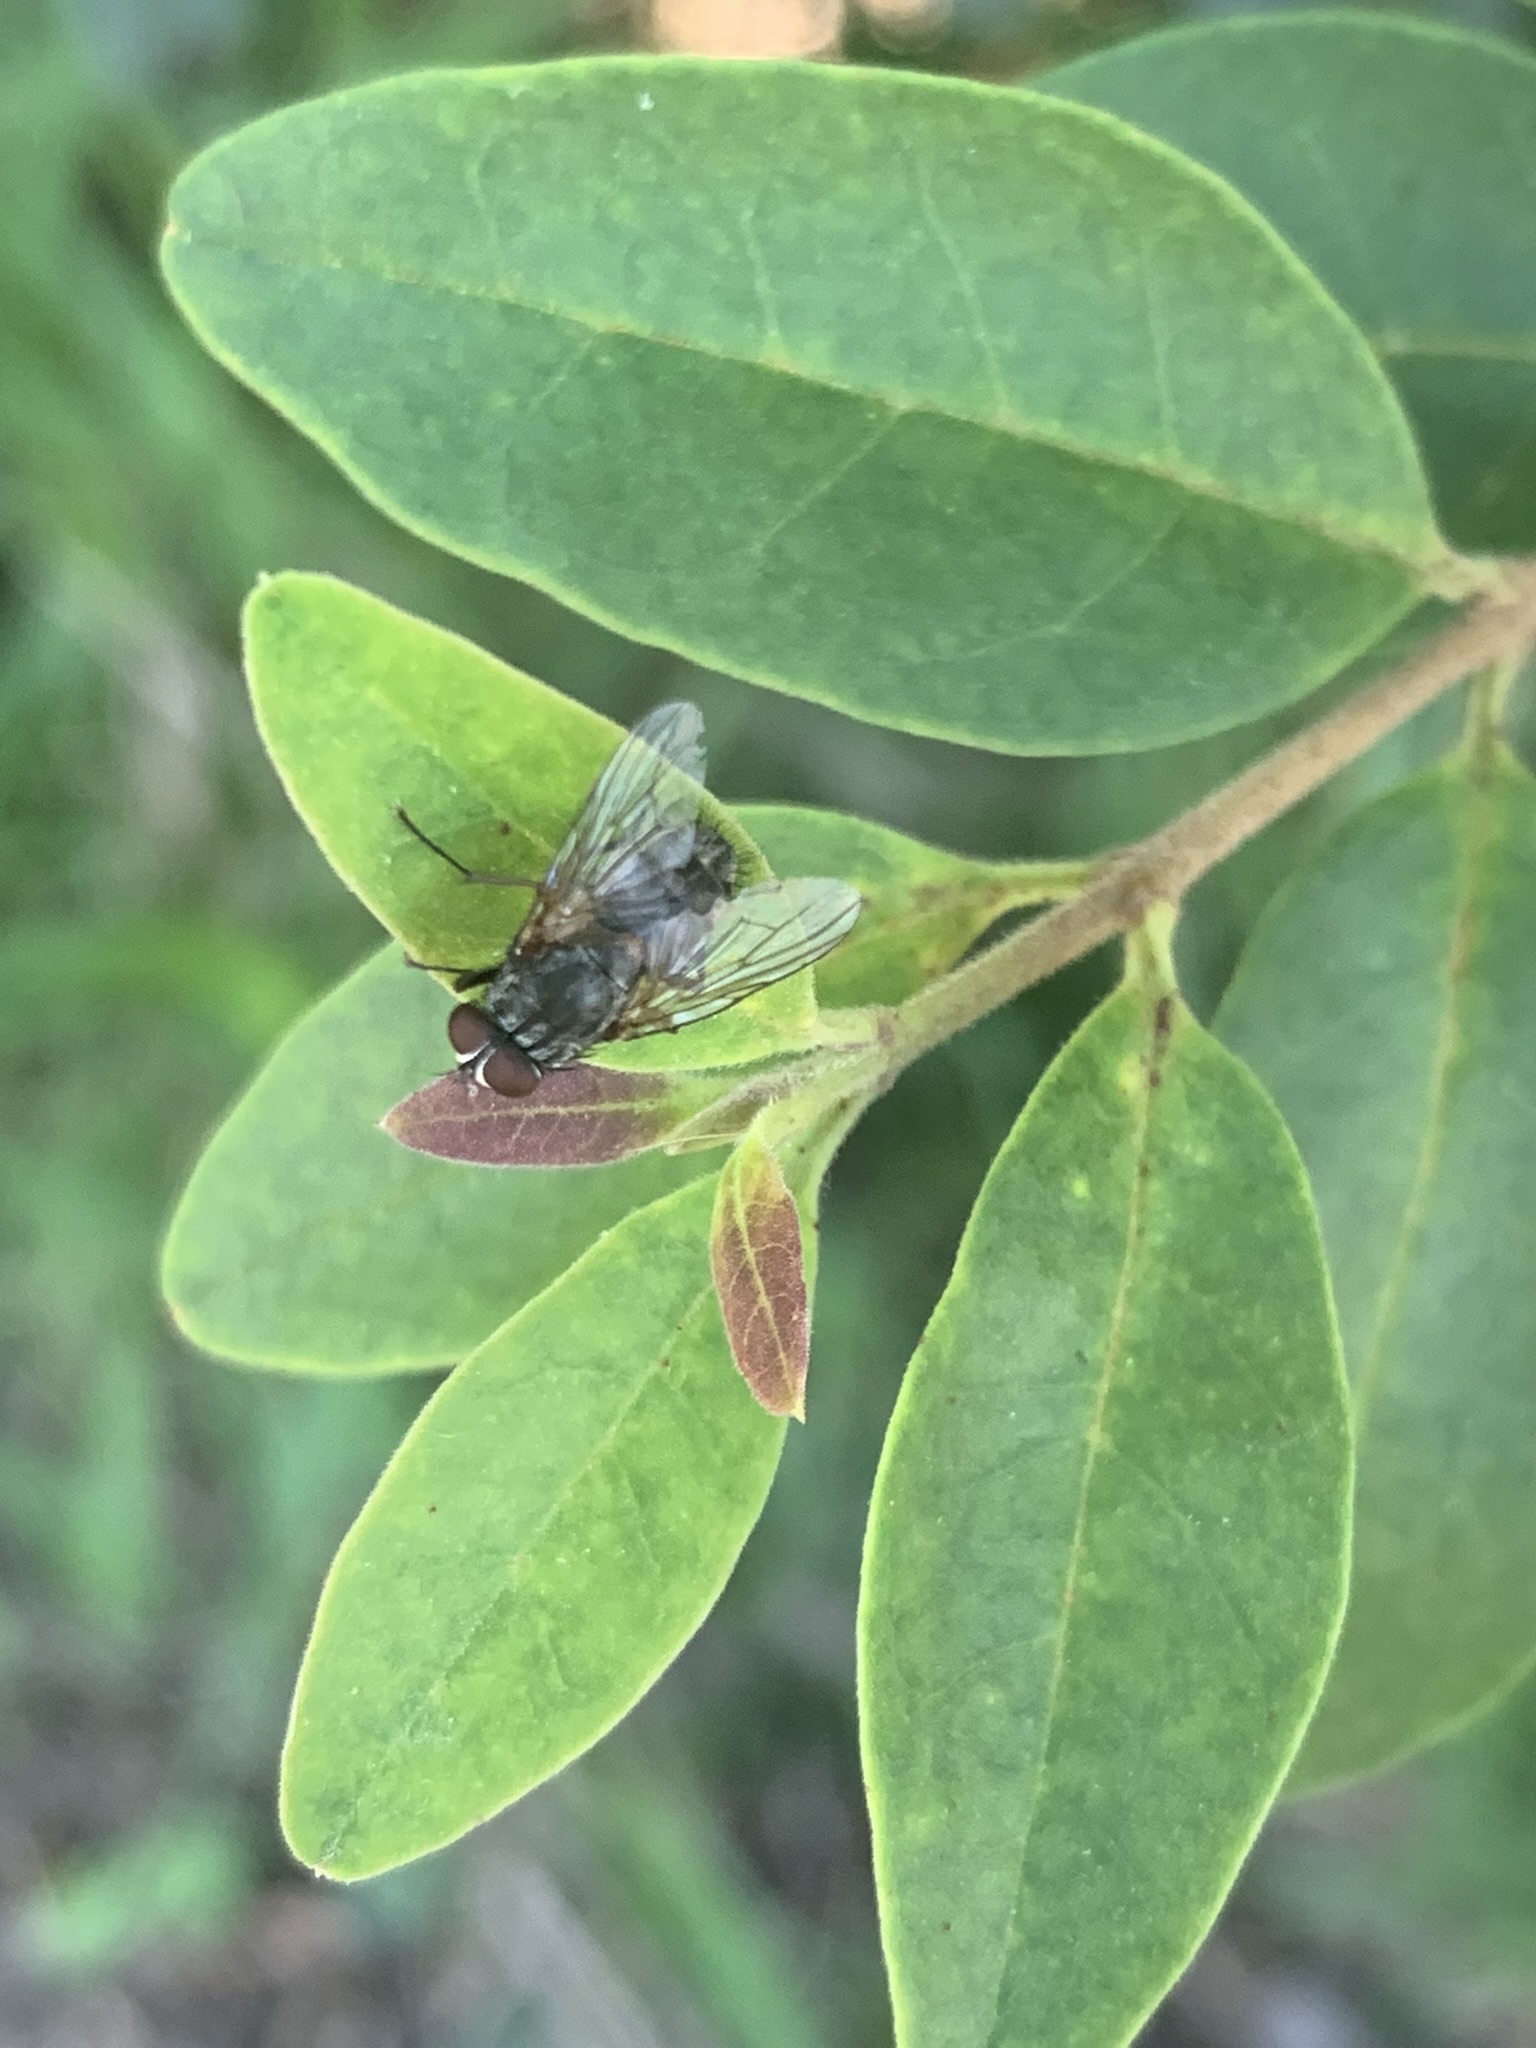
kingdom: Animalia
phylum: Arthropoda
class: Insecta
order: Diptera
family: Muscidae
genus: Muscina
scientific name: Muscina stabulans
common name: False stable fly
